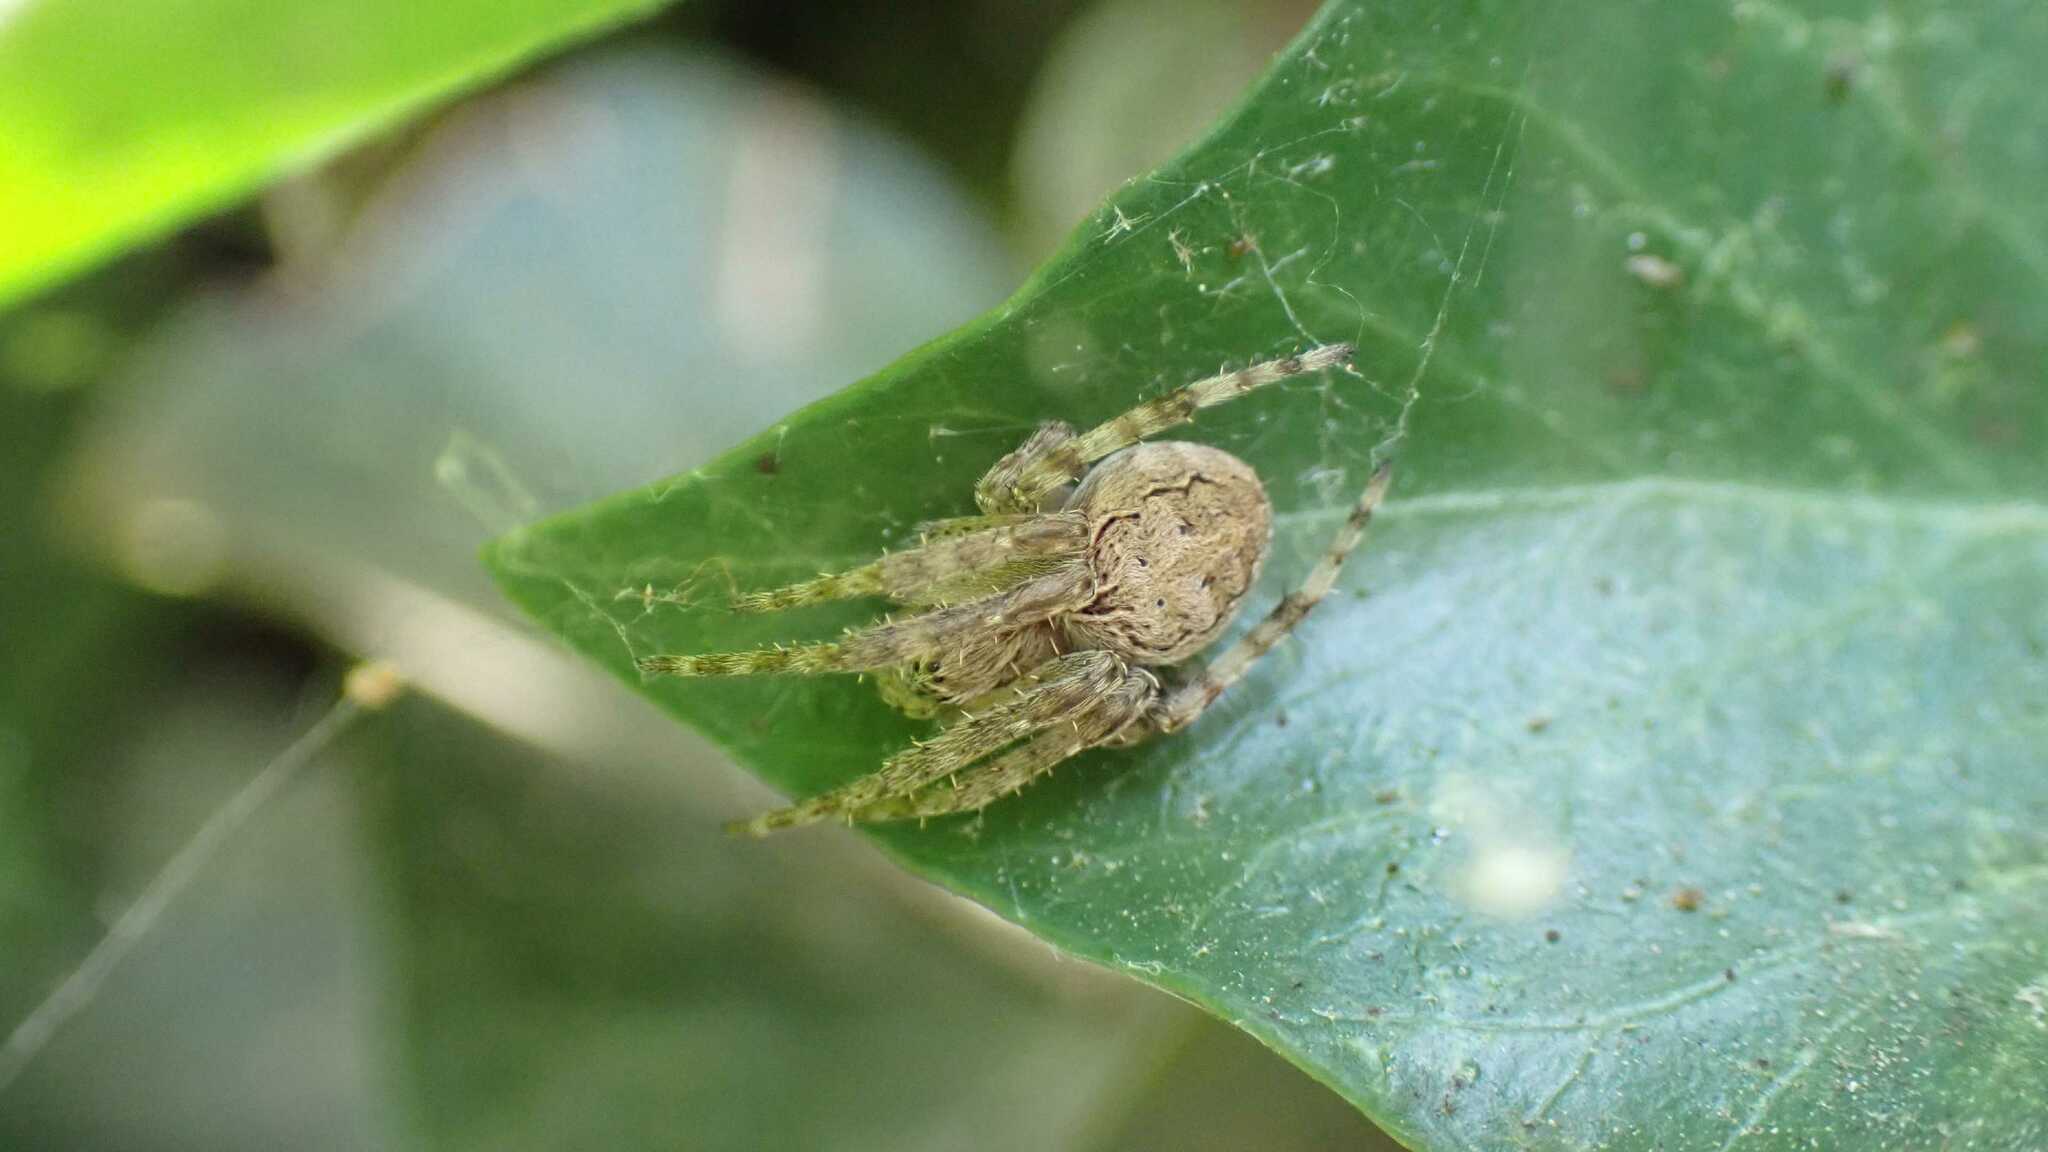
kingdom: Animalia
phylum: Arthropoda
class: Arachnida
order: Araneae
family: Araneidae
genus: Larinioides
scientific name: Larinioides sclopetarius
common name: Bridge orbweaver
